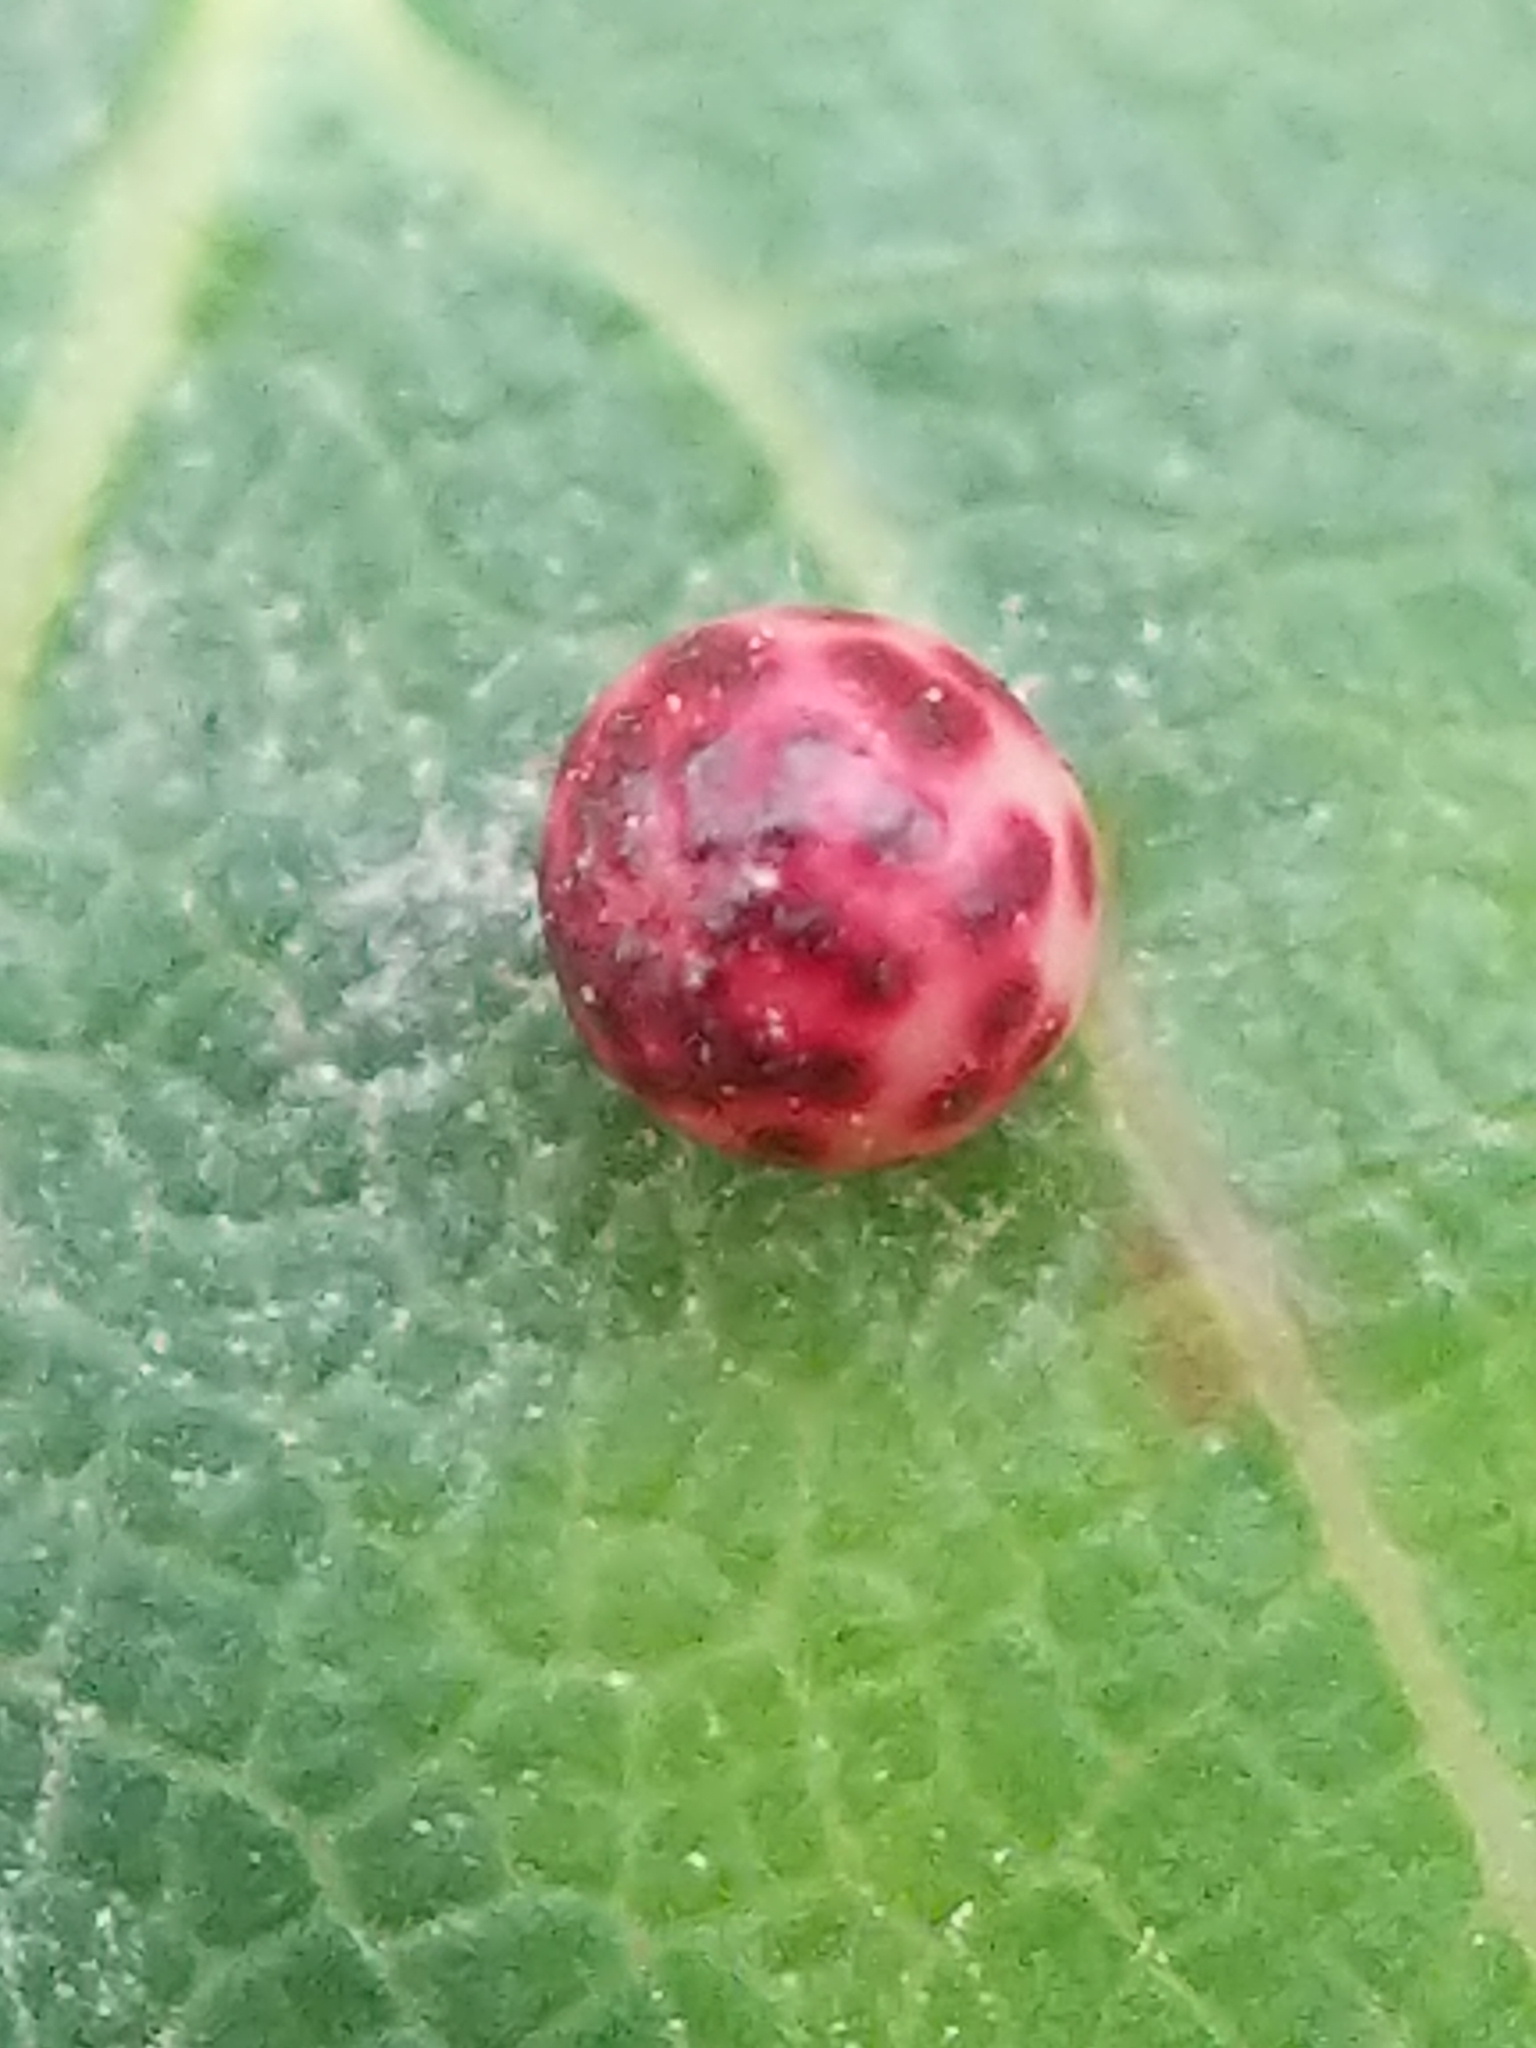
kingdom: Animalia
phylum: Arthropoda
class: Insecta
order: Hymenoptera
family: Cynipidae
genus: Zopheroteras
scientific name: Zopheroteras
